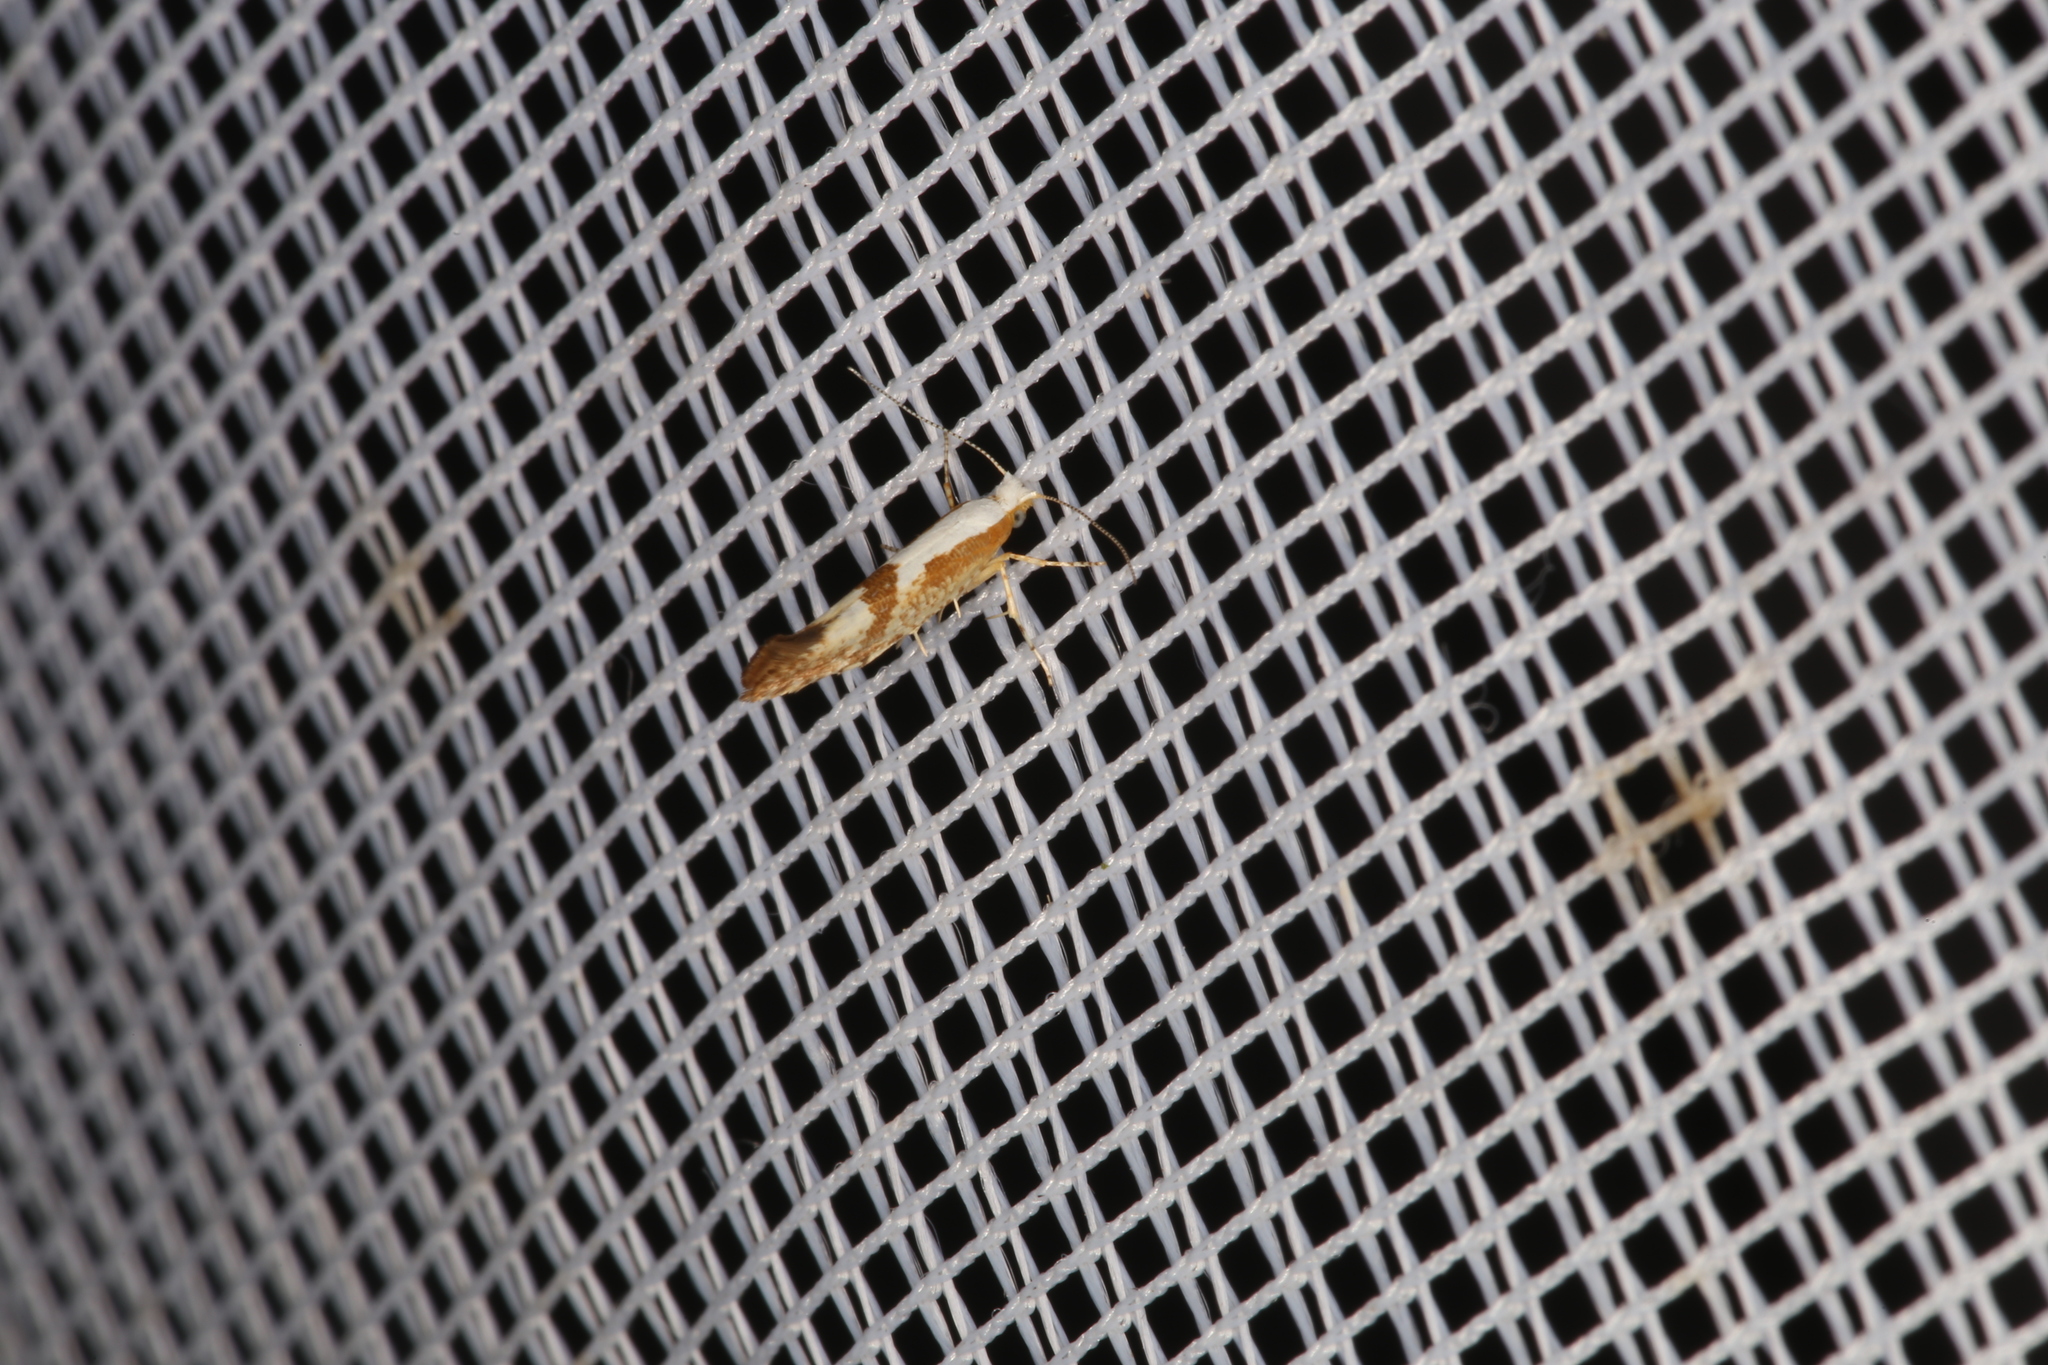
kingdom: Animalia
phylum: Arthropoda
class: Insecta
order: Lepidoptera
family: Argyresthiidae
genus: Argyresthia
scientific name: Argyresthia pruniella
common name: Cherry fruit moth
